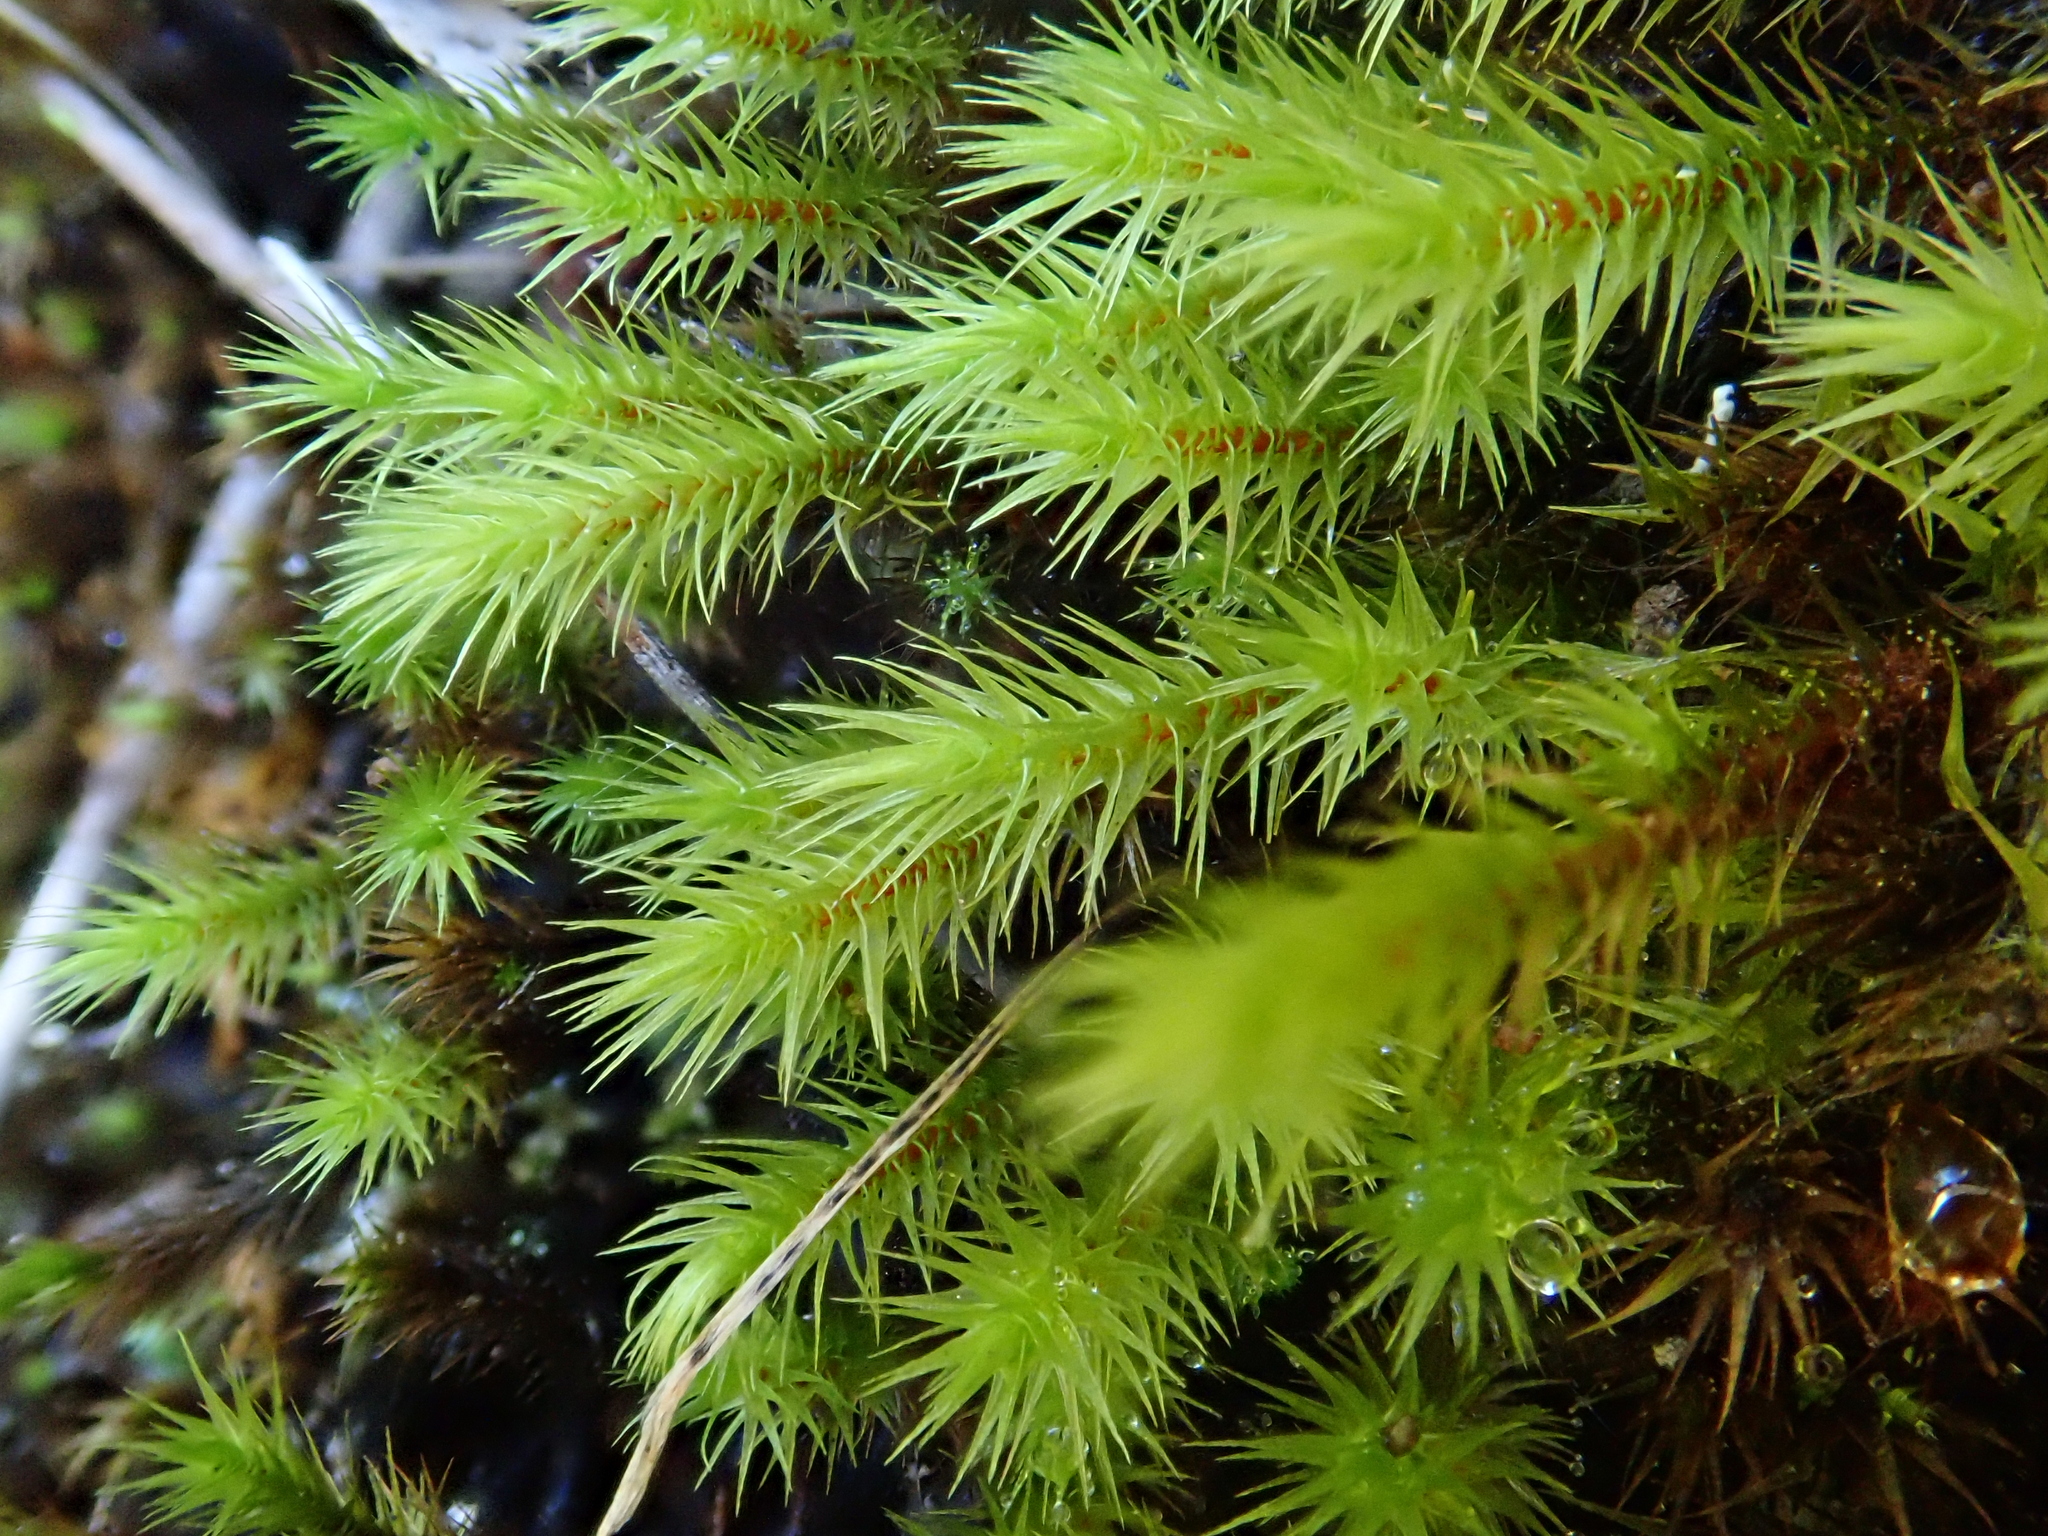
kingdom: Plantae
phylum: Bryophyta
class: Bryopsida
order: Bartramiales
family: Bartramiaceae
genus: Anacolia
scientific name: Anacolia webbii
